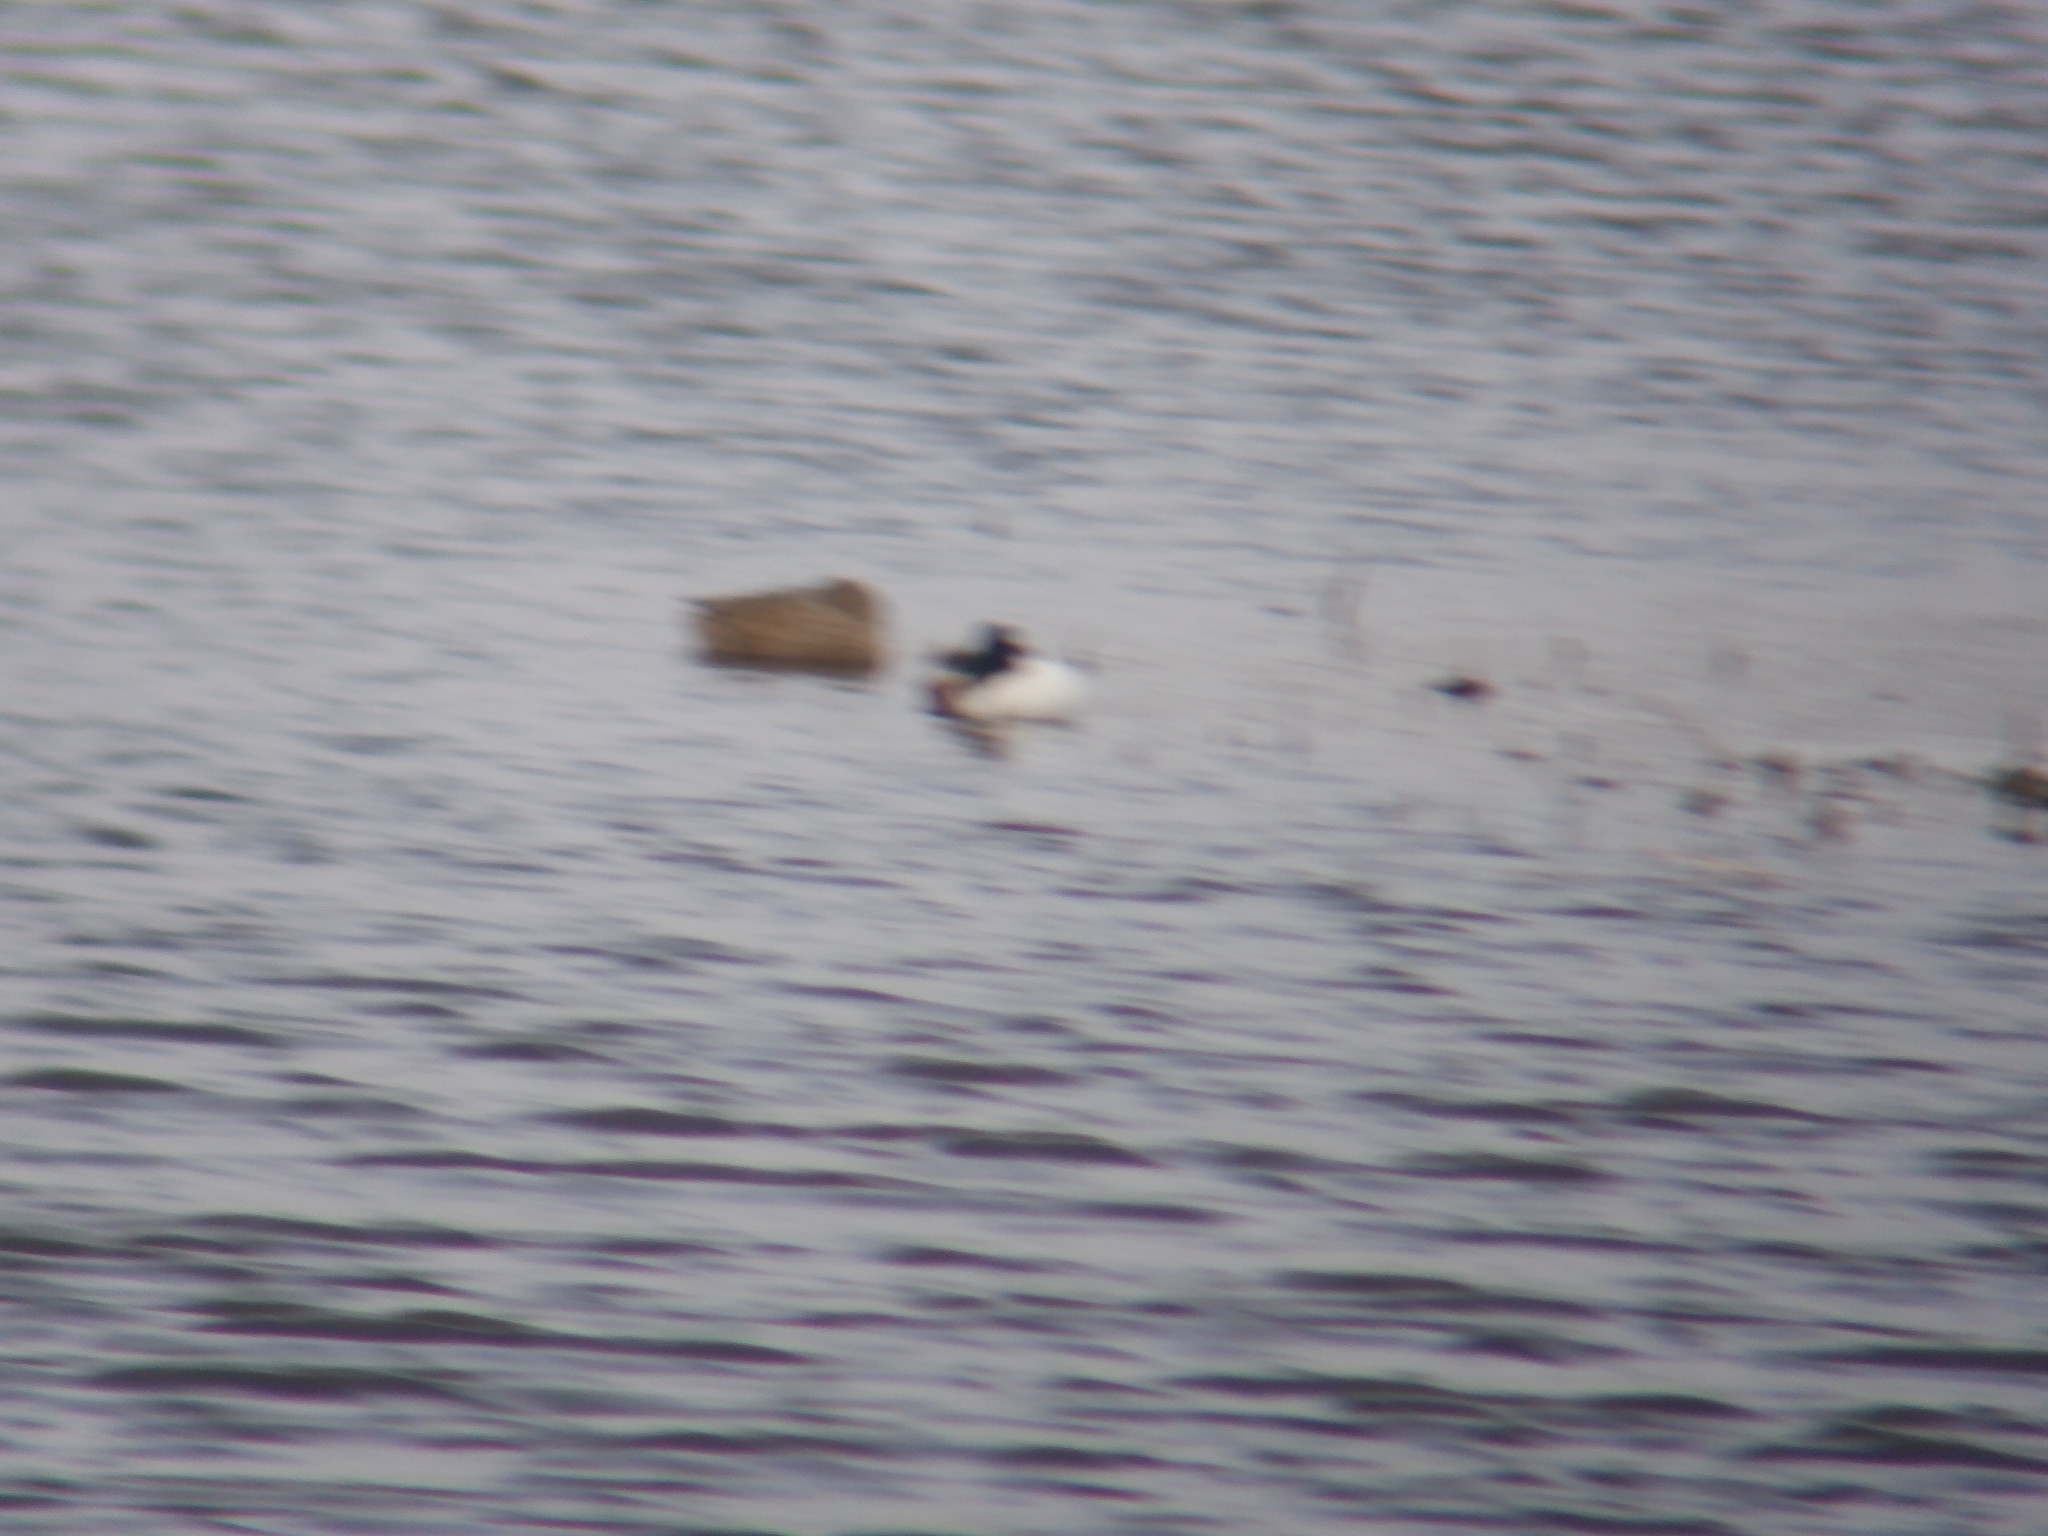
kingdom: Animalia
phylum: Chordata
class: Aves
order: Anseriformes
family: Anatidae
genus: Spatula
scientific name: Spatula clypeata
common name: Northern shoveler
